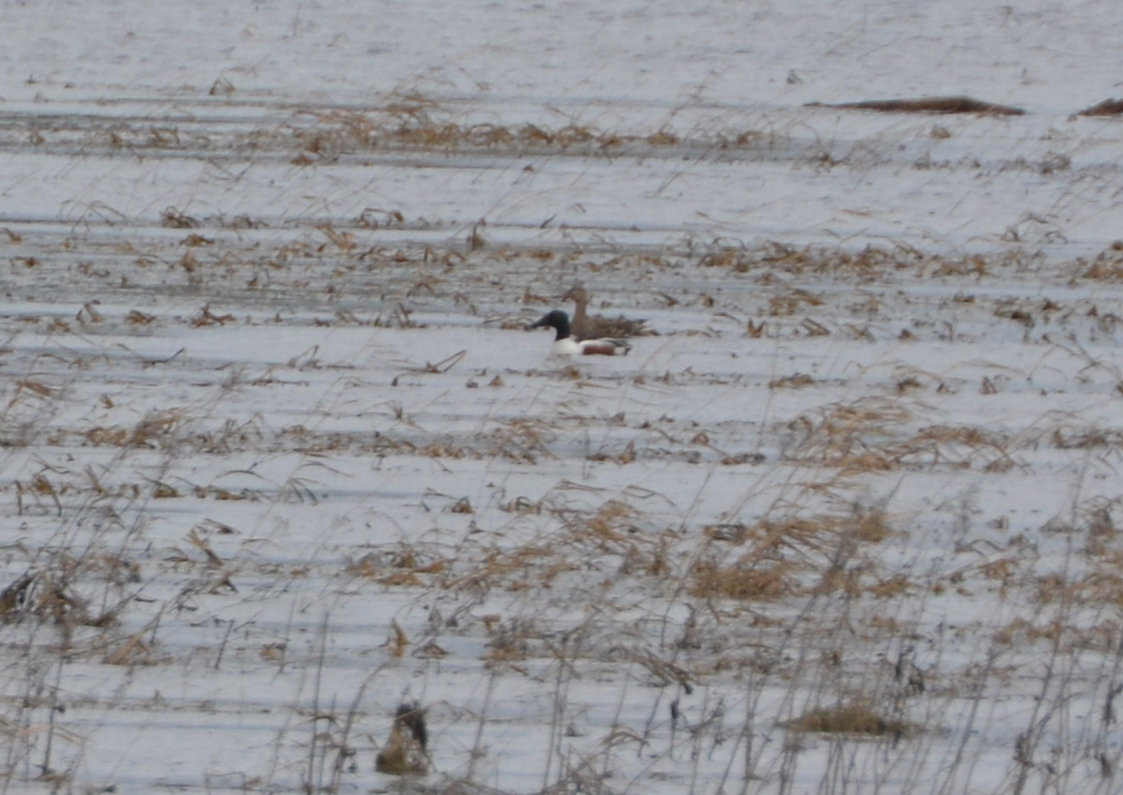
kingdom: Animalia
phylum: Chordata
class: Aves
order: Anseriformes
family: Anatidae
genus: Spatula
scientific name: Spatula clypeata
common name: Northern shoveler
